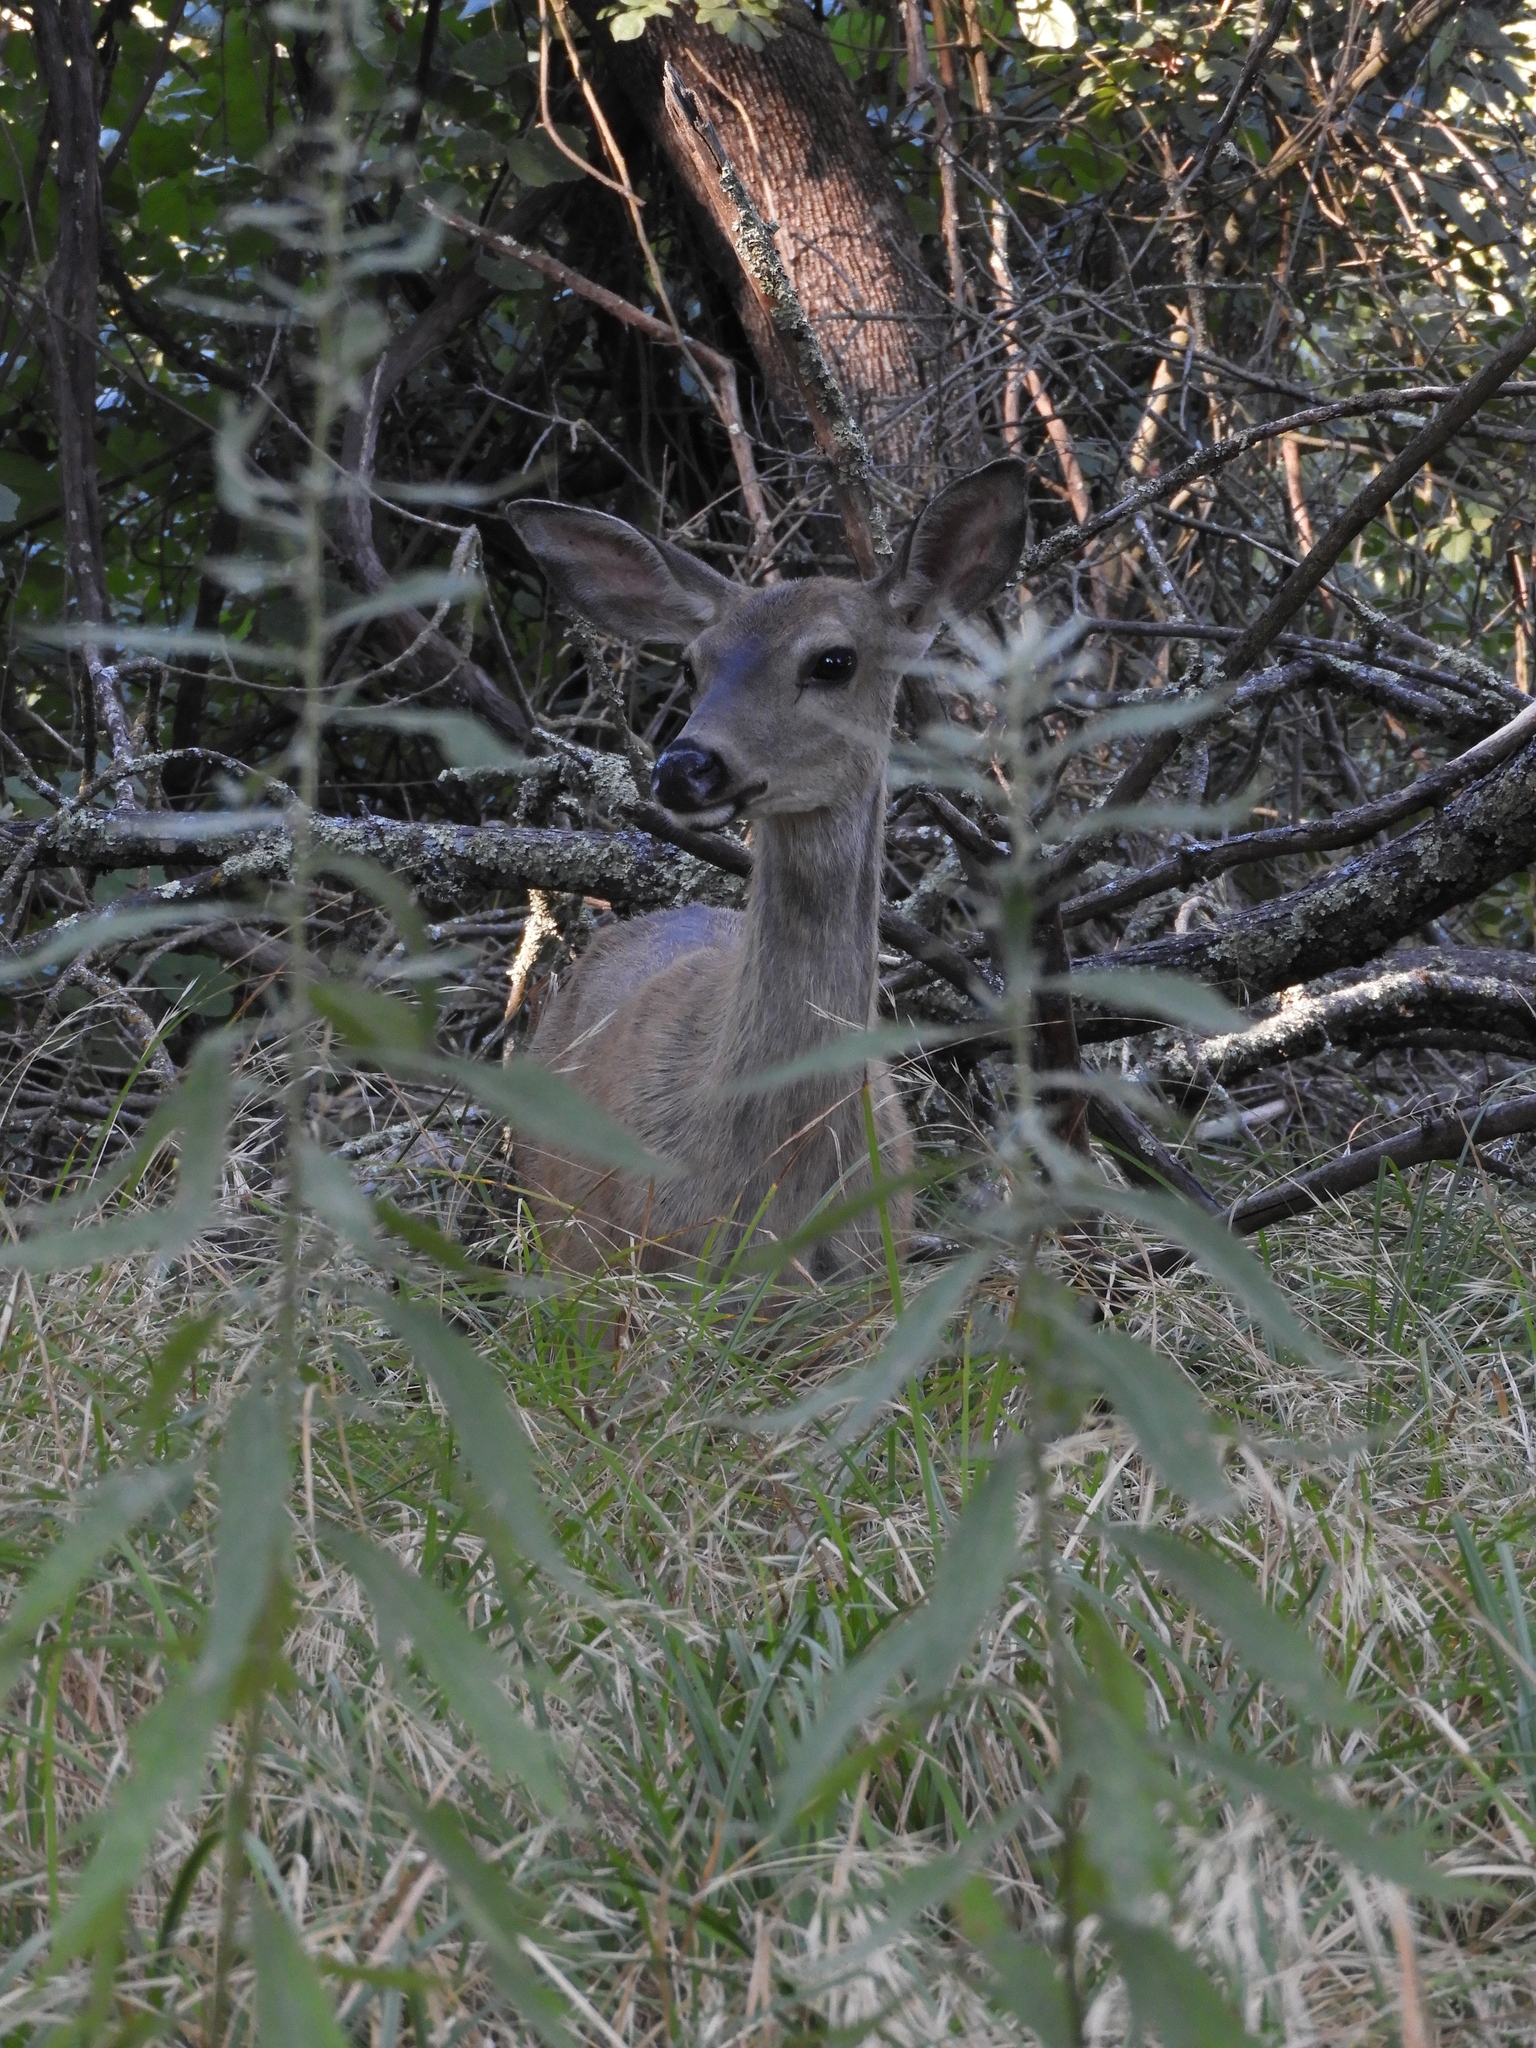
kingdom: Animalia
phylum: Chordata
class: Mammalia
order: Artiodactyla
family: Cervidae
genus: Odocoileus
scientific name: Odocoileus hemionus
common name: Mule deer
